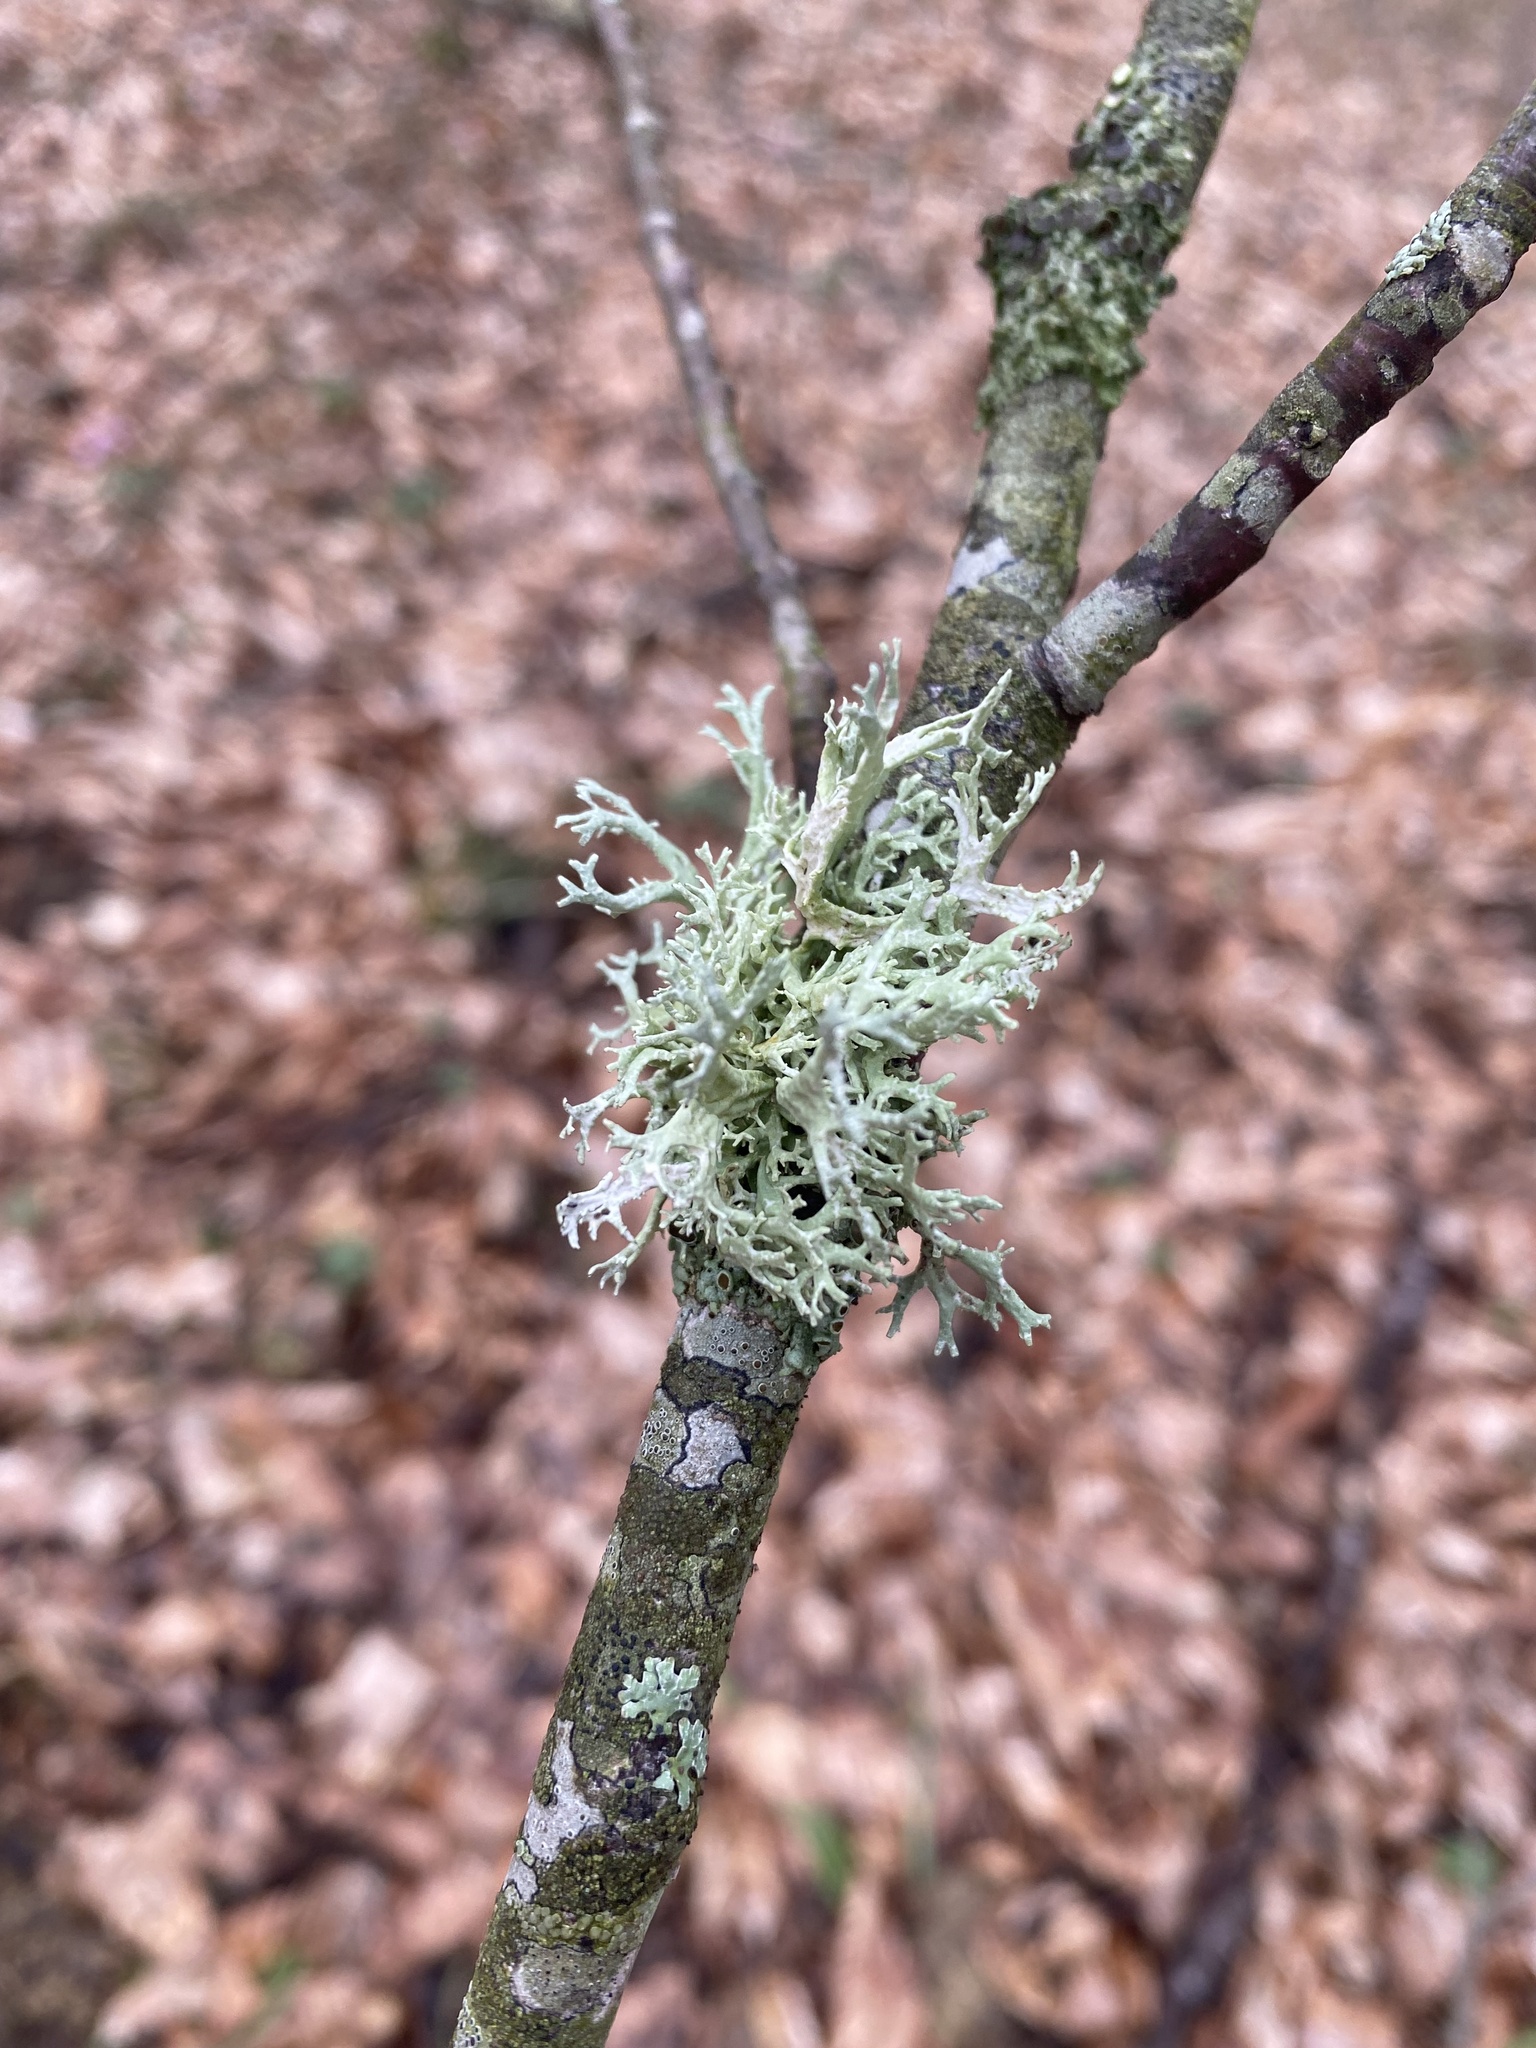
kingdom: Fungi
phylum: Ascomycota
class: Lecanoromycetes
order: Lecanorales
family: Parmeliaceae
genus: Evernia
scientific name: Evernia prunastri
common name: Oak moss
